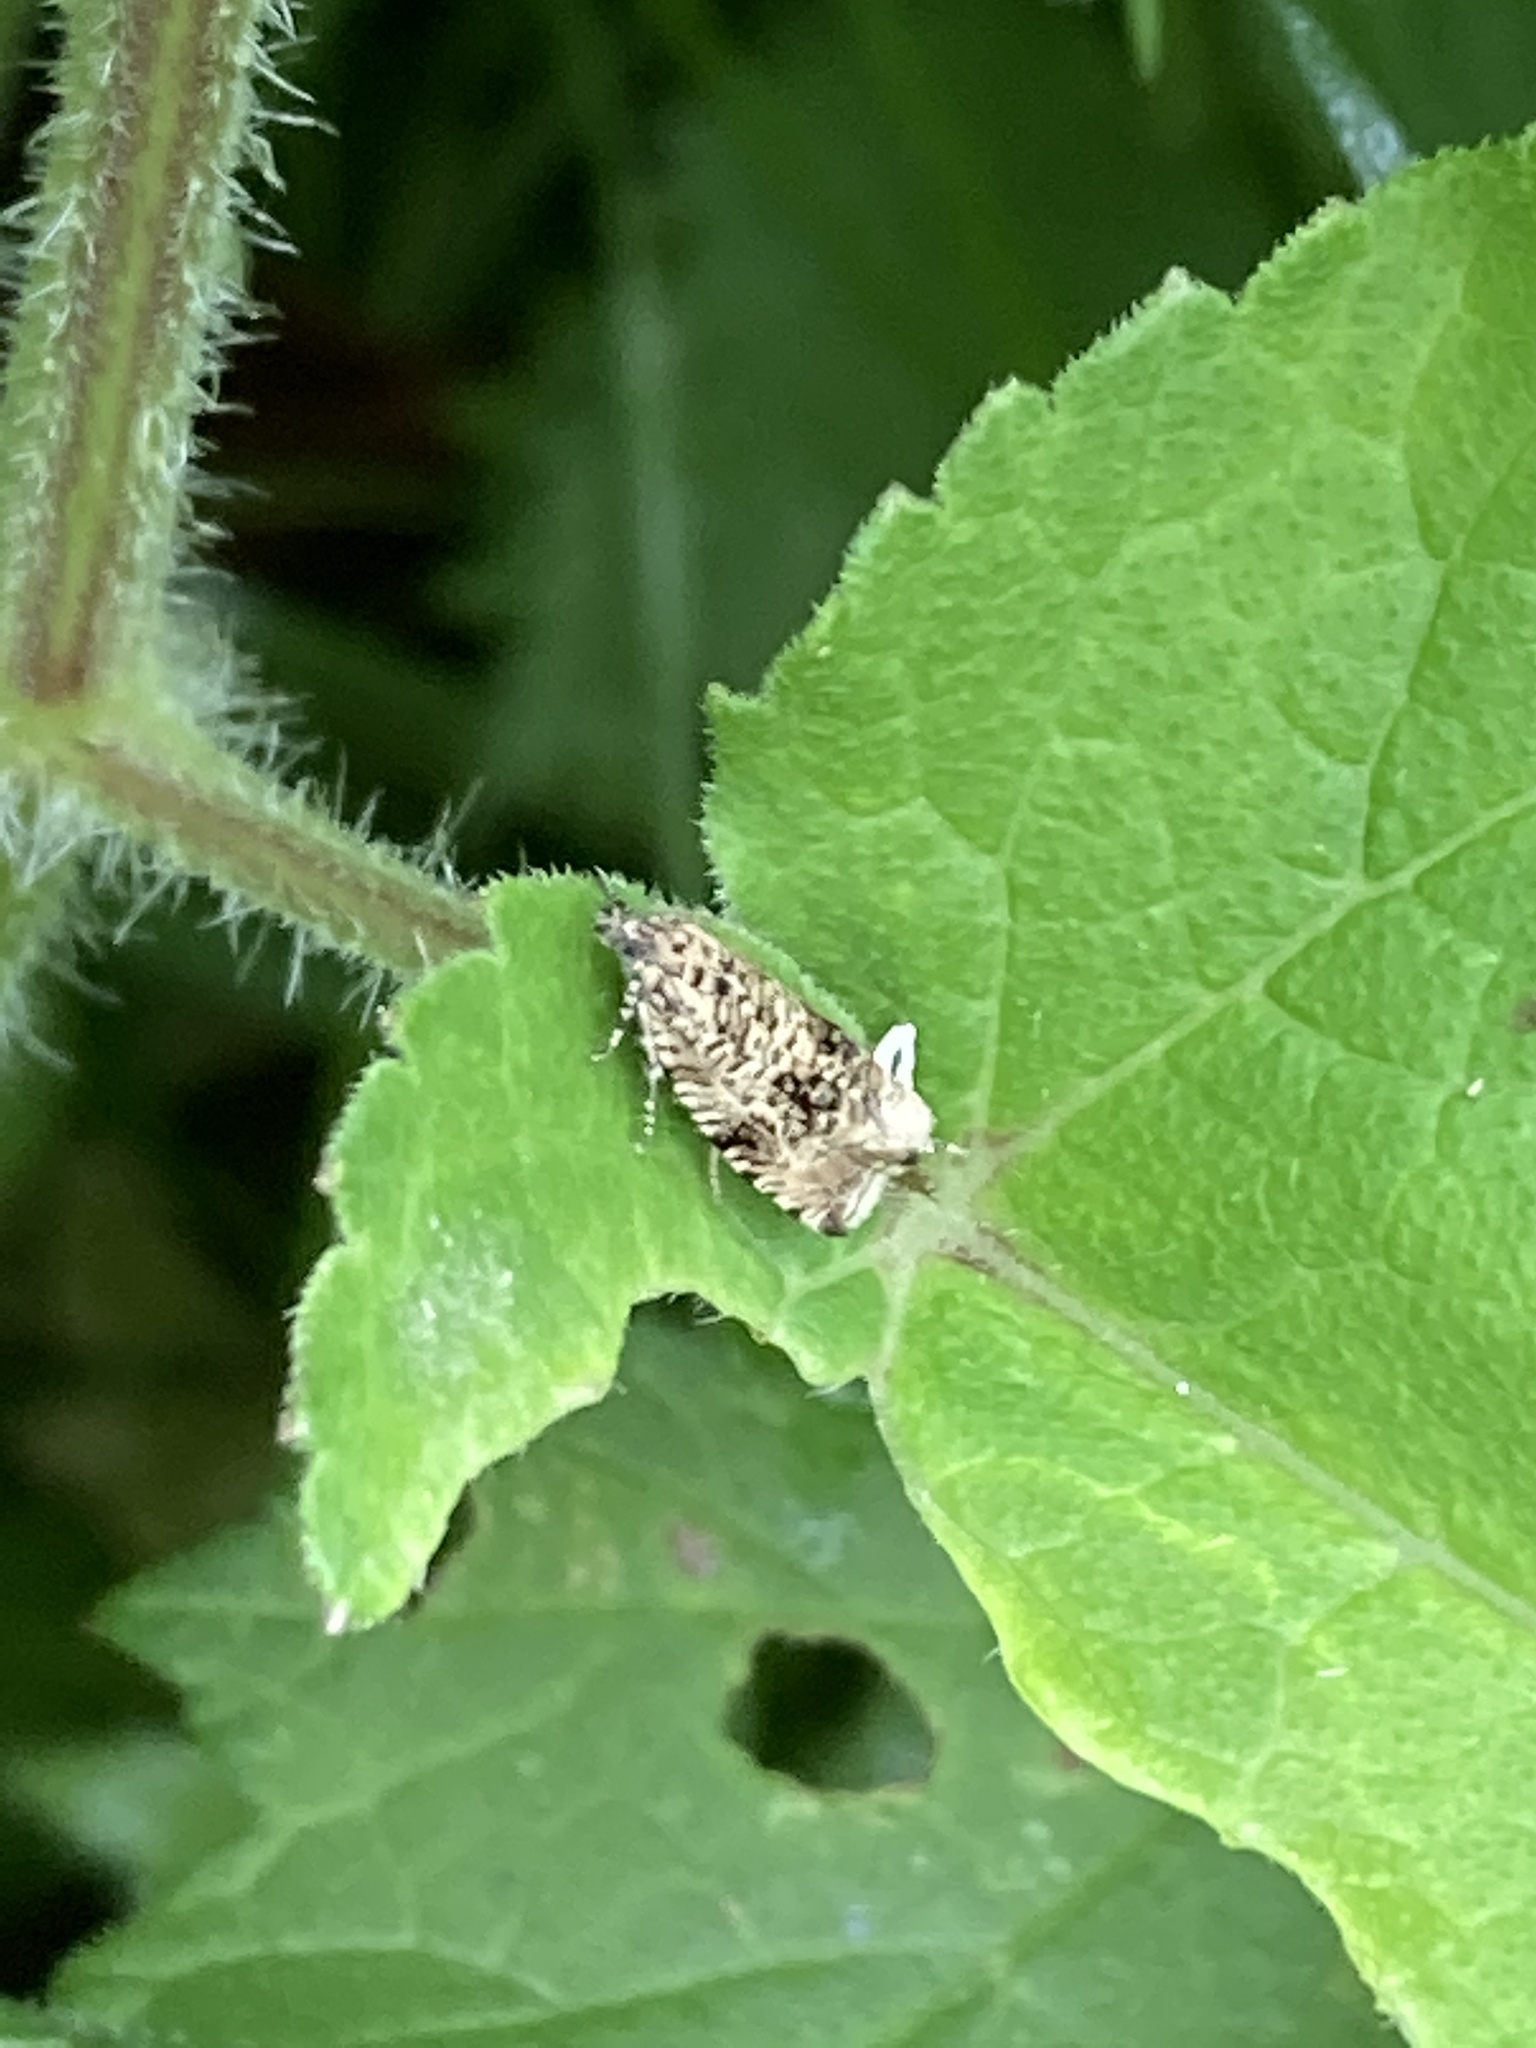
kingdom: Animalia
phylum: Arthropoda
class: Insecta
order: Lepidoptera
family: Tortricidae
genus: Syricoris
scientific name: Syricoris lacunana
